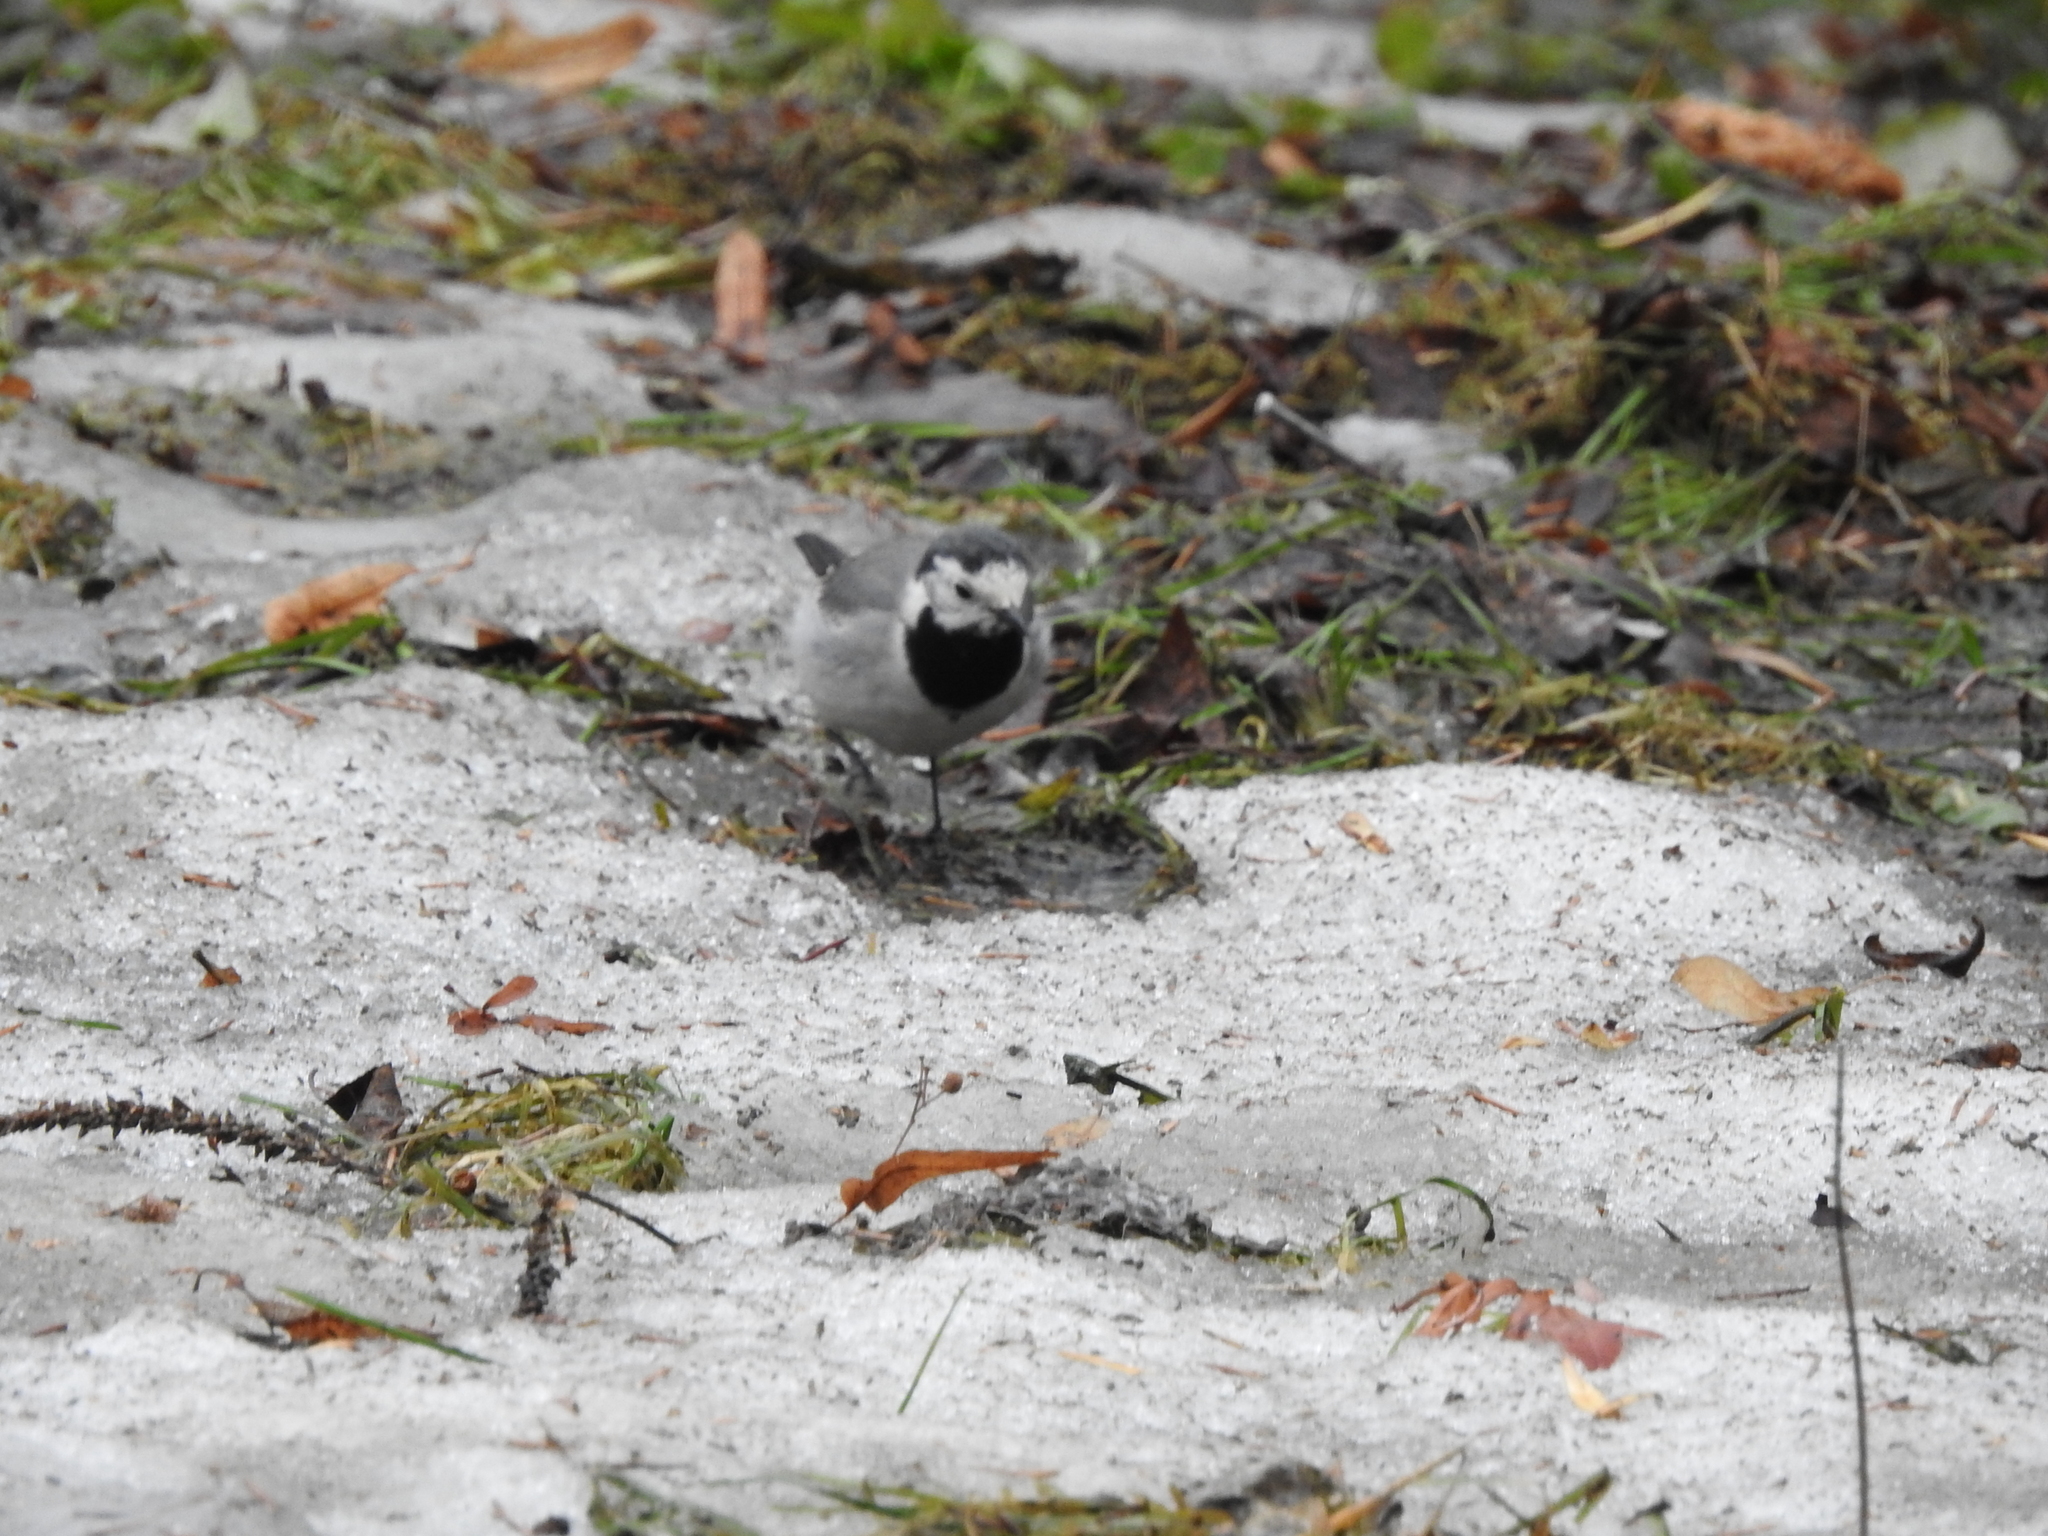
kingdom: Animalia
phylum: Chordata
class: Aves
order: Passeriformes
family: Motacillidae
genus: Motacilla
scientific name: Motacilla alba
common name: White wagtail
